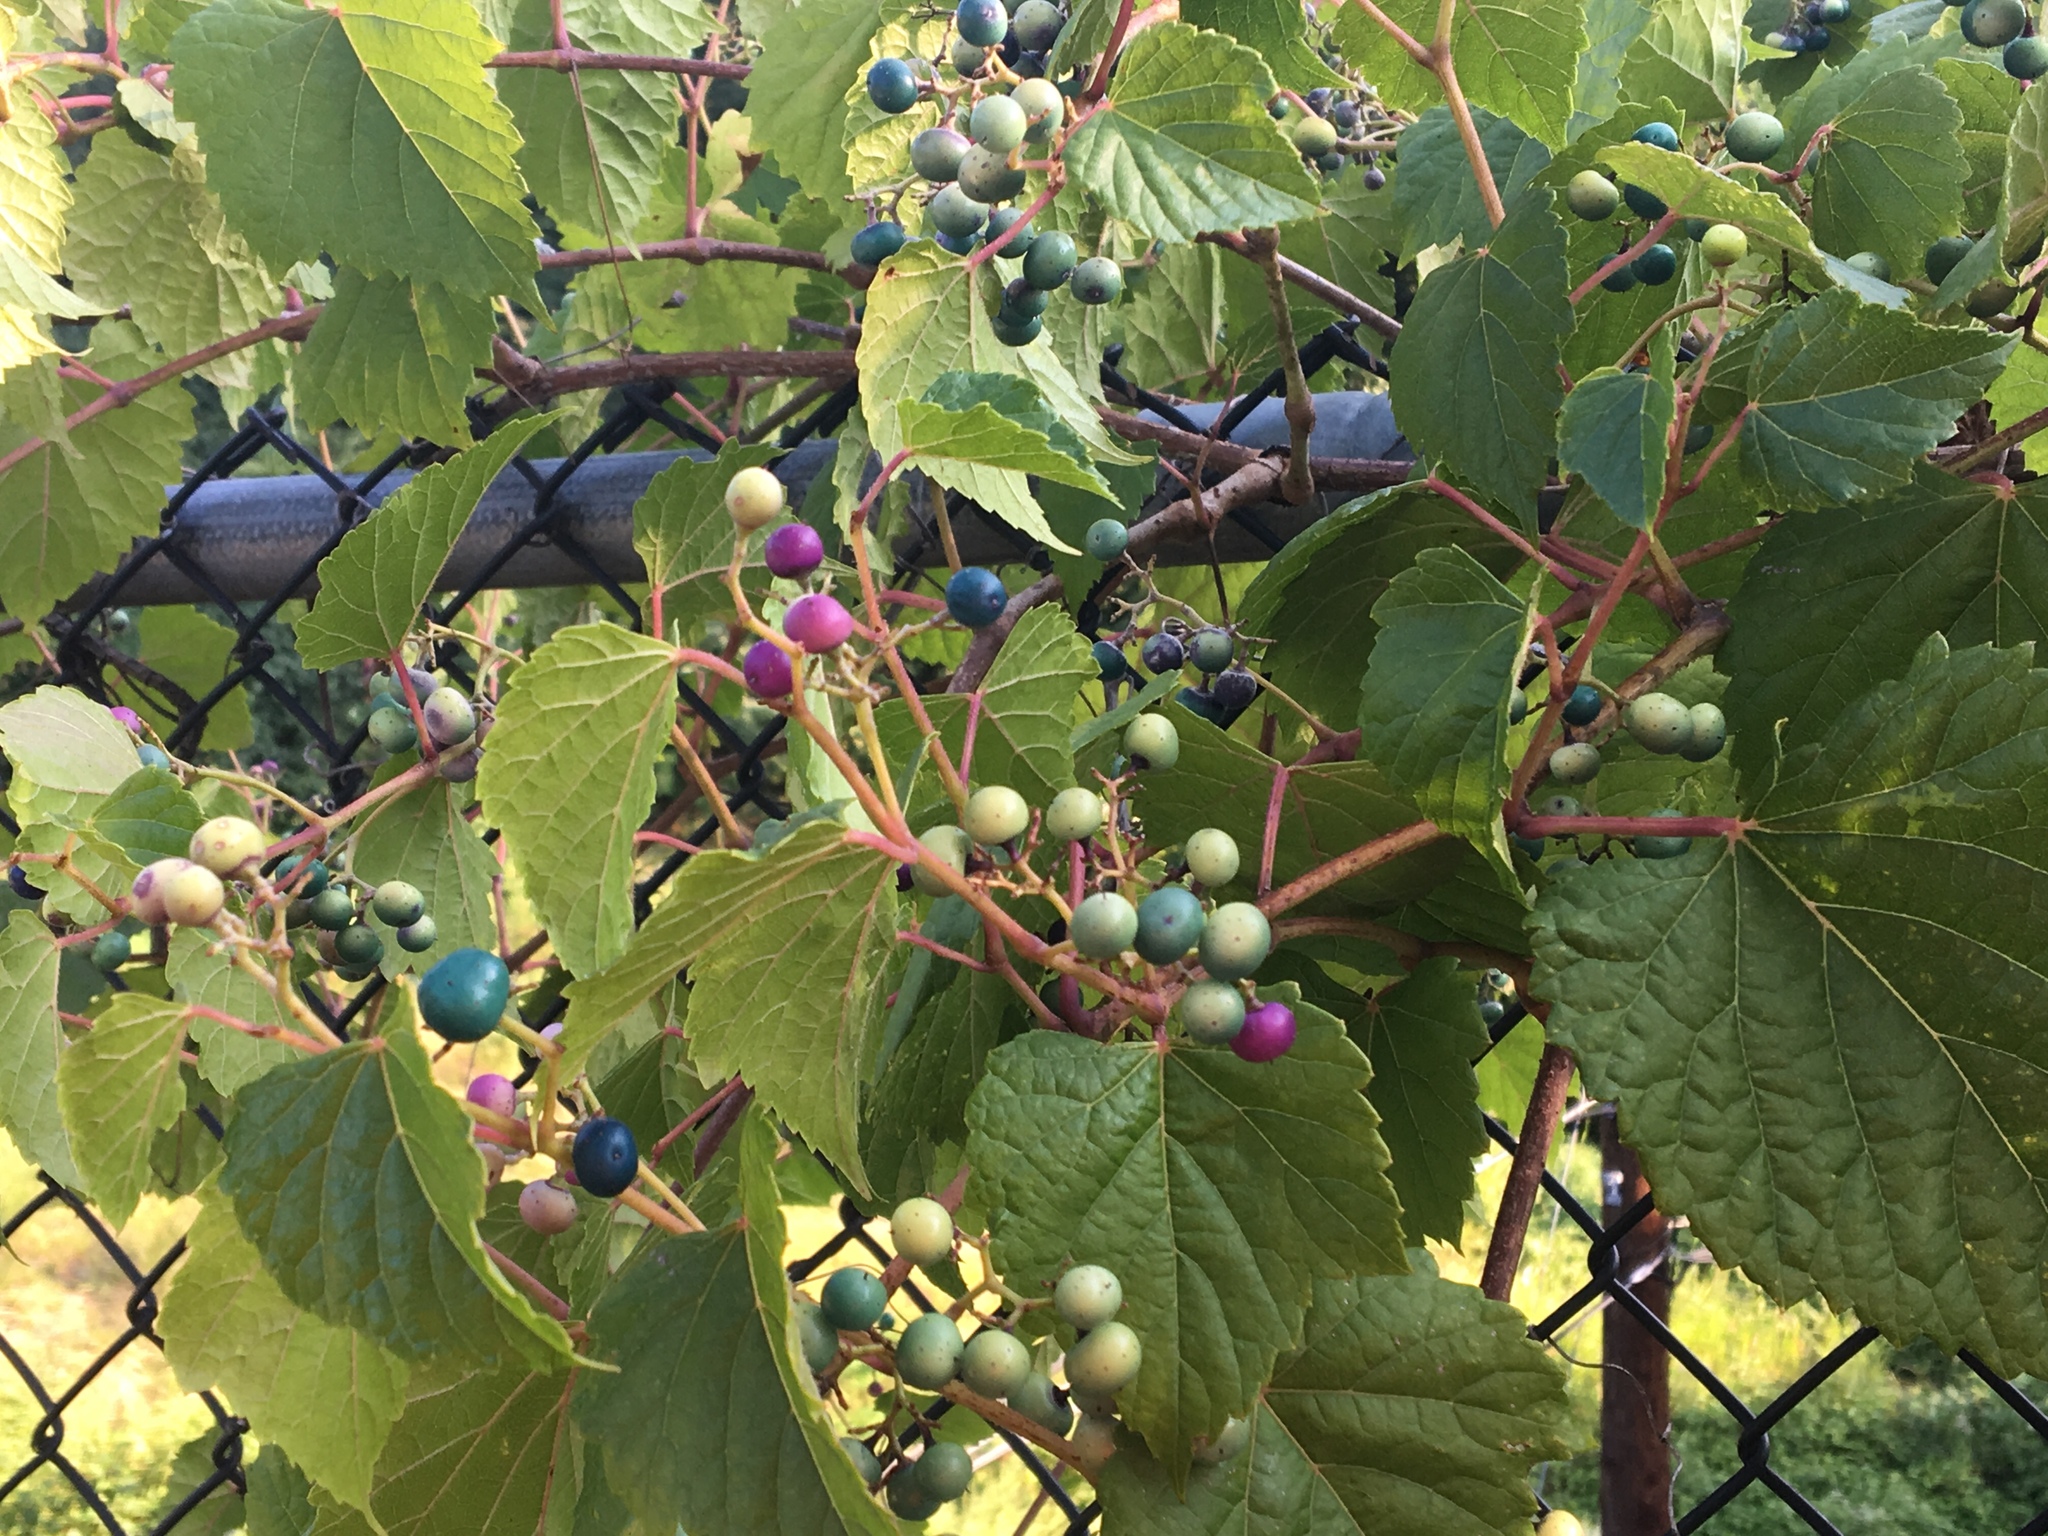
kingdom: Plantae
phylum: Tracheophyta
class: Magnoliopsida
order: Vitales
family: Vitaceae
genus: Ampelopsis
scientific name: Ampelopsis glandulosa
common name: Amur peppervine
